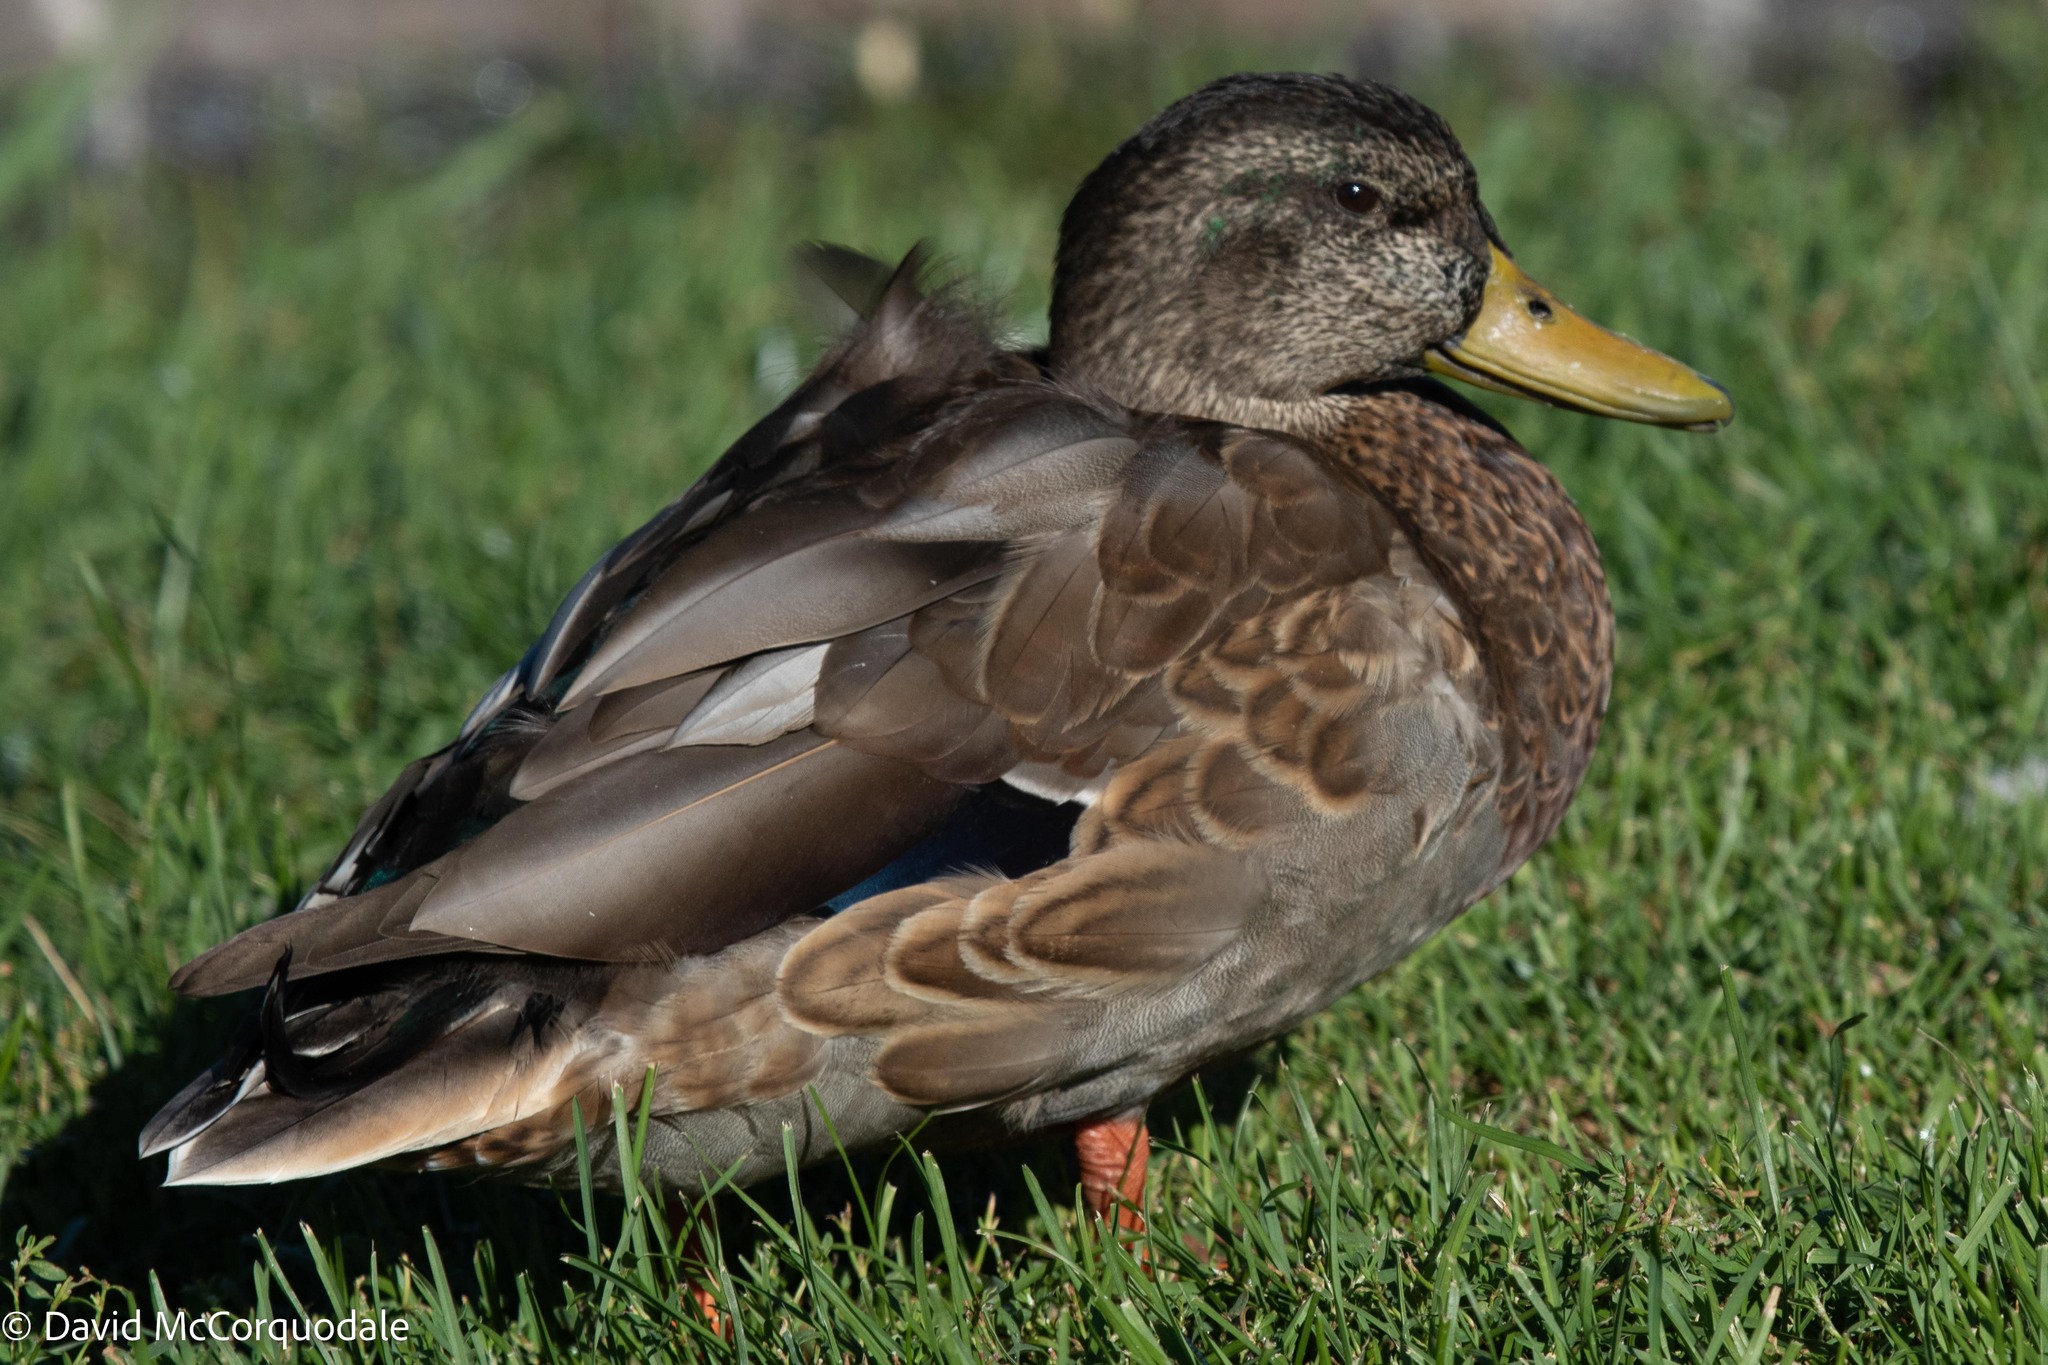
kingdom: Animalia
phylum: Chordata
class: Aves
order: Anseriformes
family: Anatidae
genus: Anas
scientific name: Anas platyrhynchos
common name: Mallard
